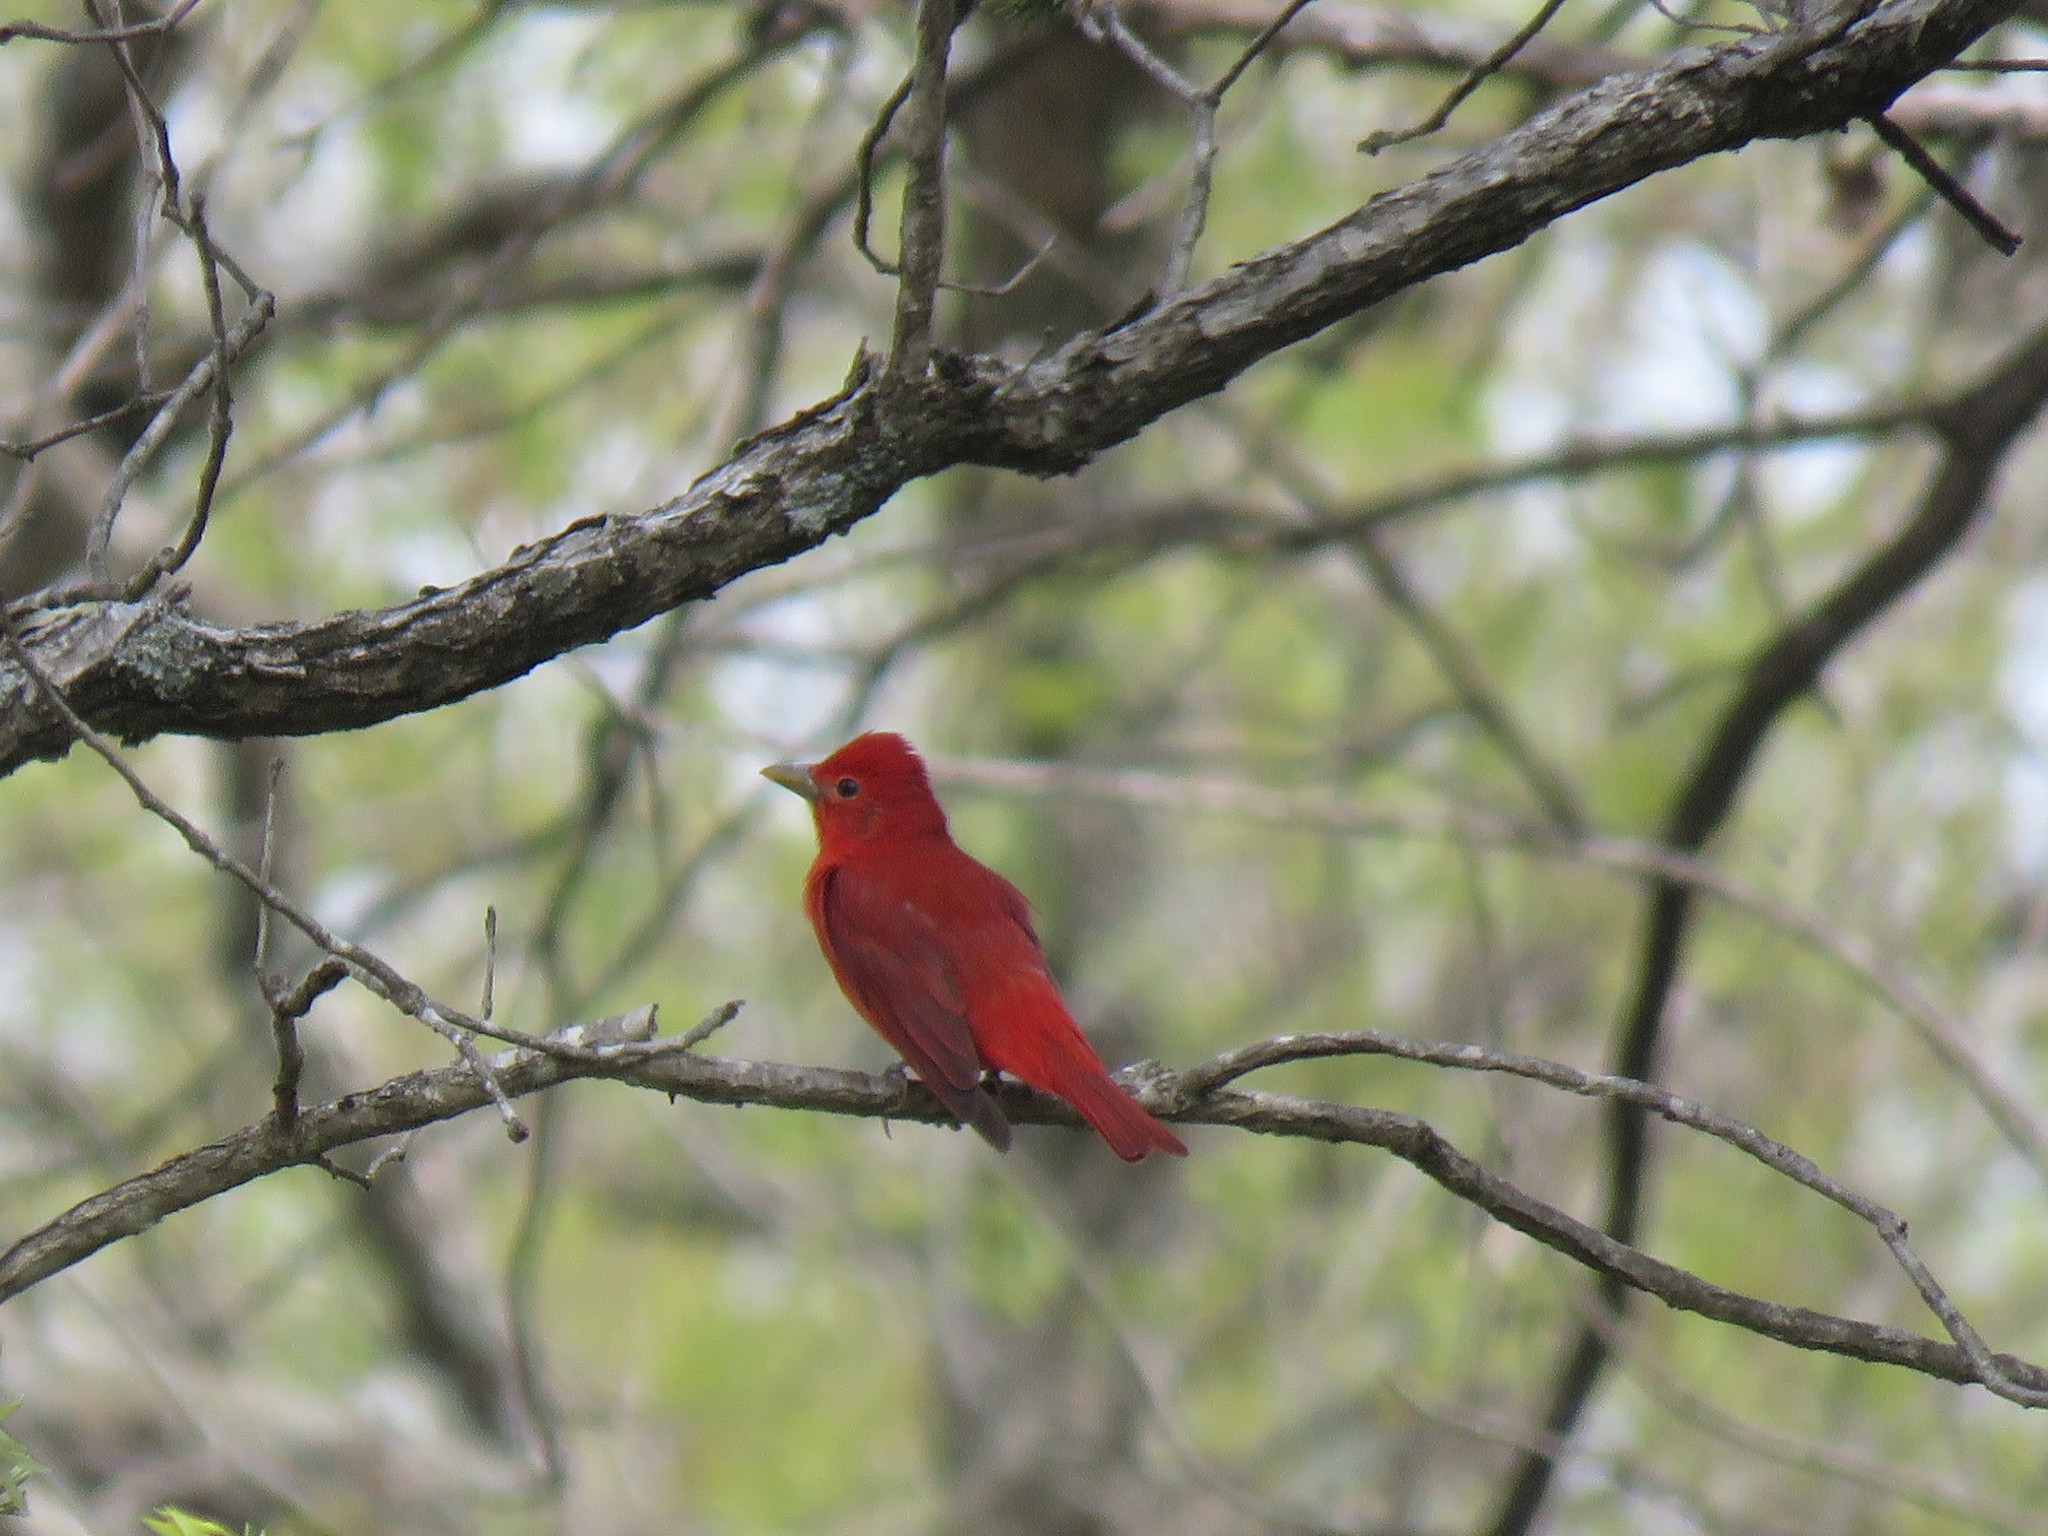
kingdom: Animalia
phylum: Chordata
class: Aves
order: Passeriformes
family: Cardinalidae
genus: Piranga
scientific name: Piranga rubra
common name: Summer tanager
